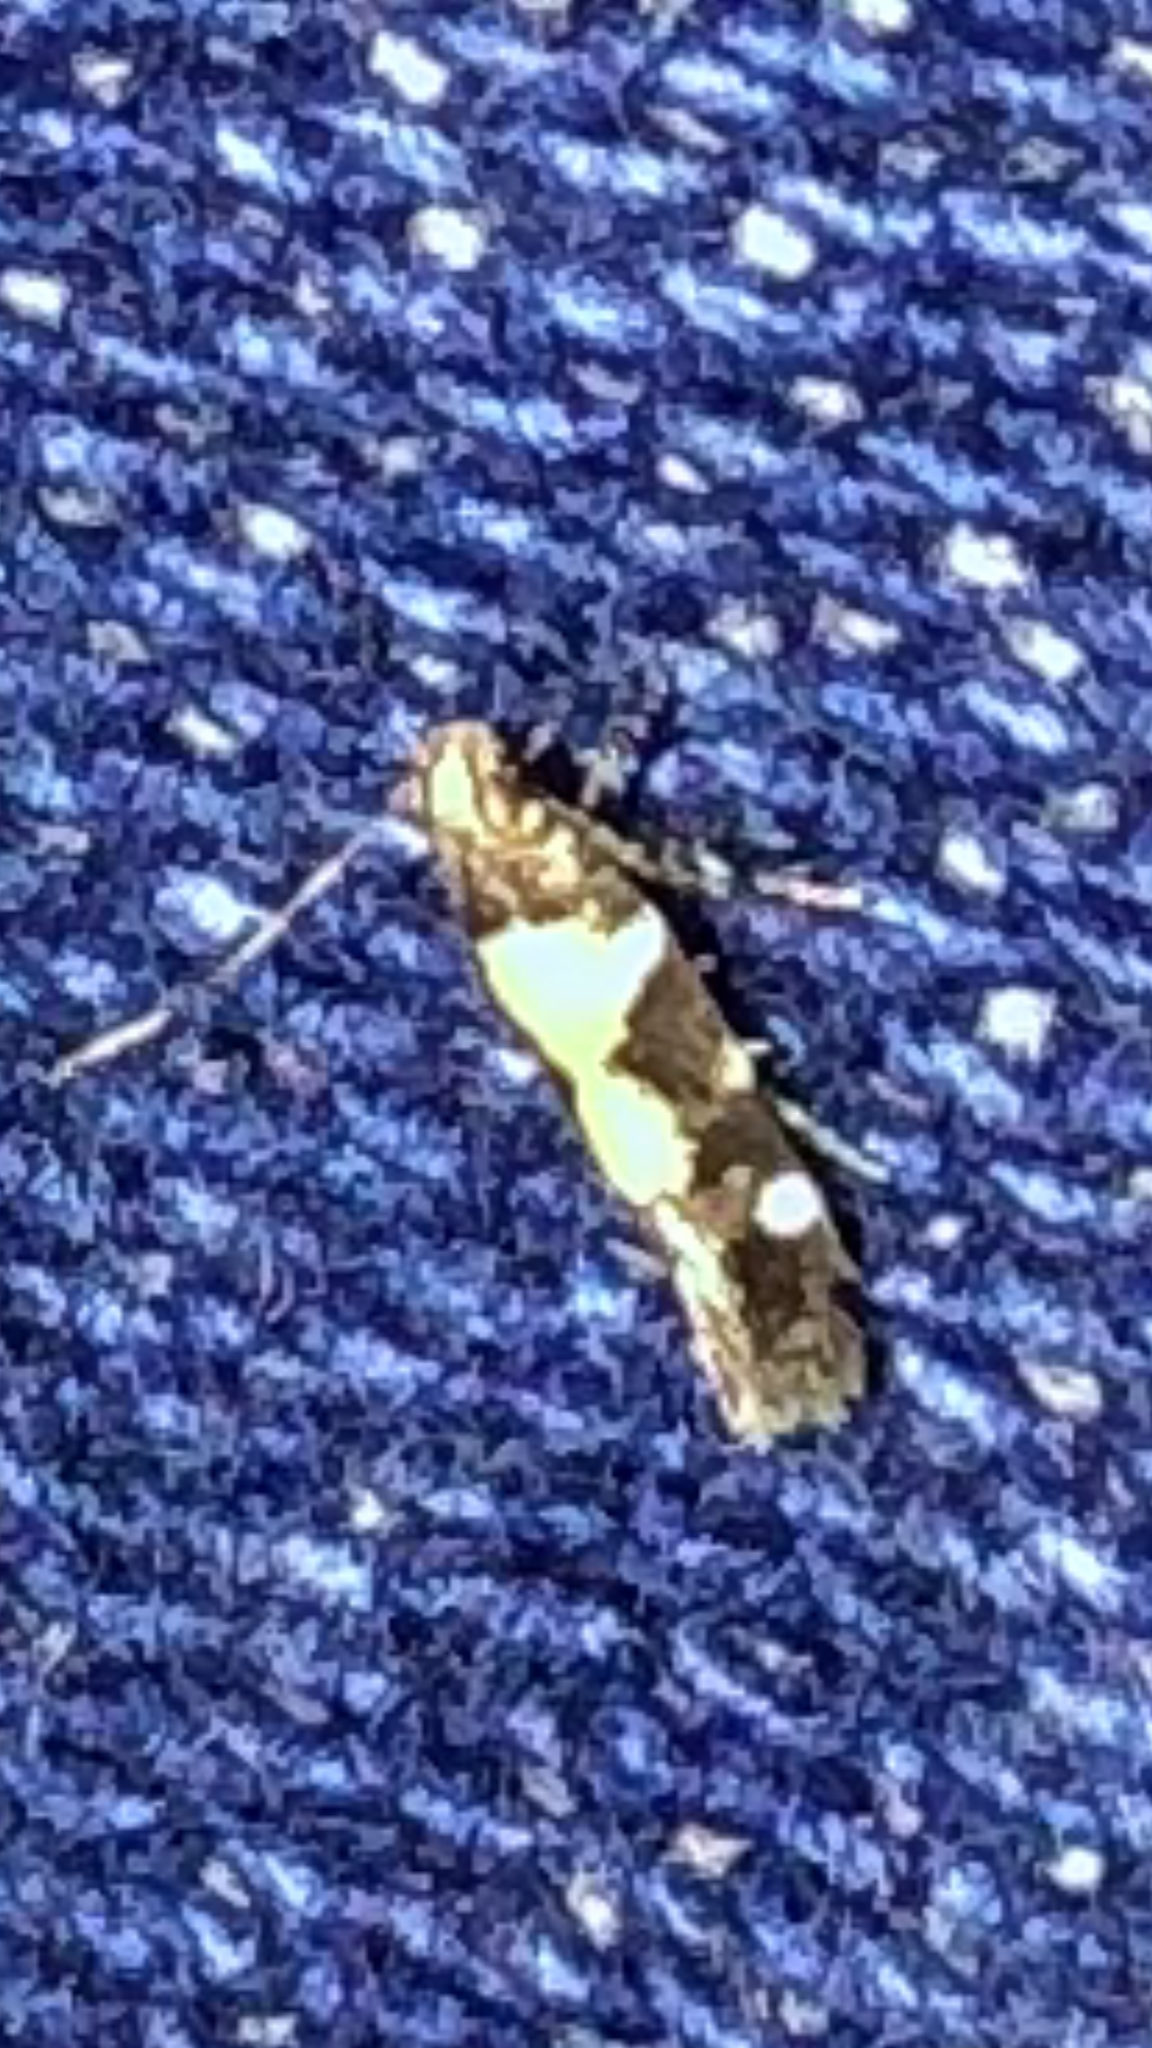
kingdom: Animalia
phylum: Arthropoda
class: Insecta
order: Lepidoptera
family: Gelechiidae
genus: Stegasta
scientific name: Stegasta bosqueella
